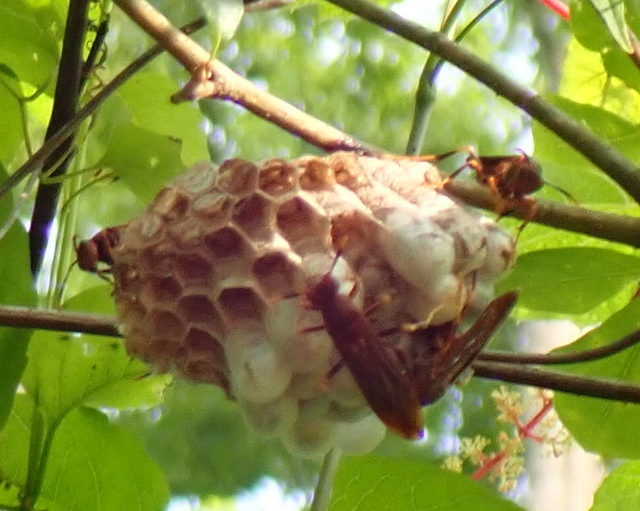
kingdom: Animalia
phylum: Arthropoda
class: Insecta
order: Hymenoptera
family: Eumenidae
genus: Polistes
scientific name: Polistes annularis
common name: Ringed paper wasp
